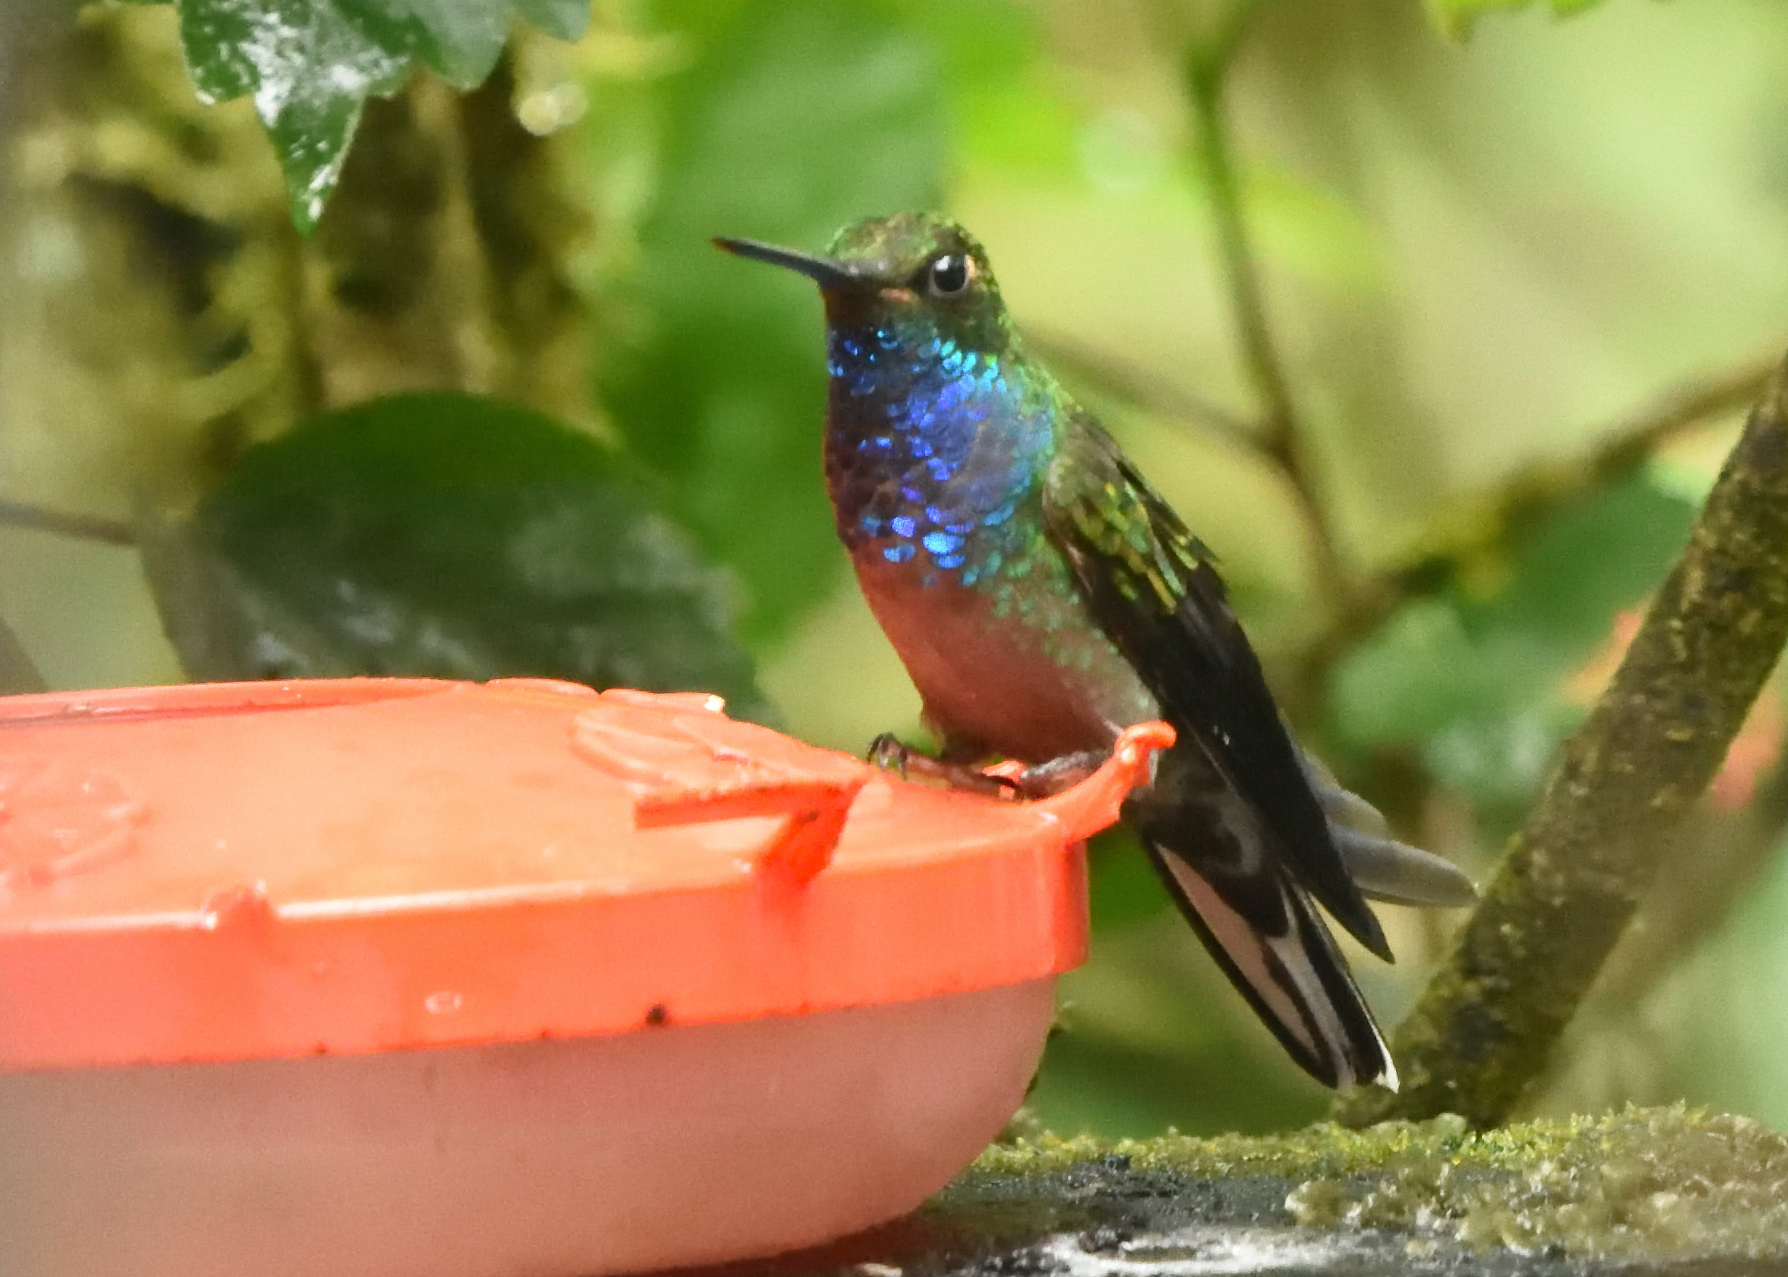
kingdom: Animalia
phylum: Chordata
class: Aves
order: Apodiformes
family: Trochilidae
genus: Urochroa
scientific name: Urochroa leucura
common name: Green-backed hillstar
